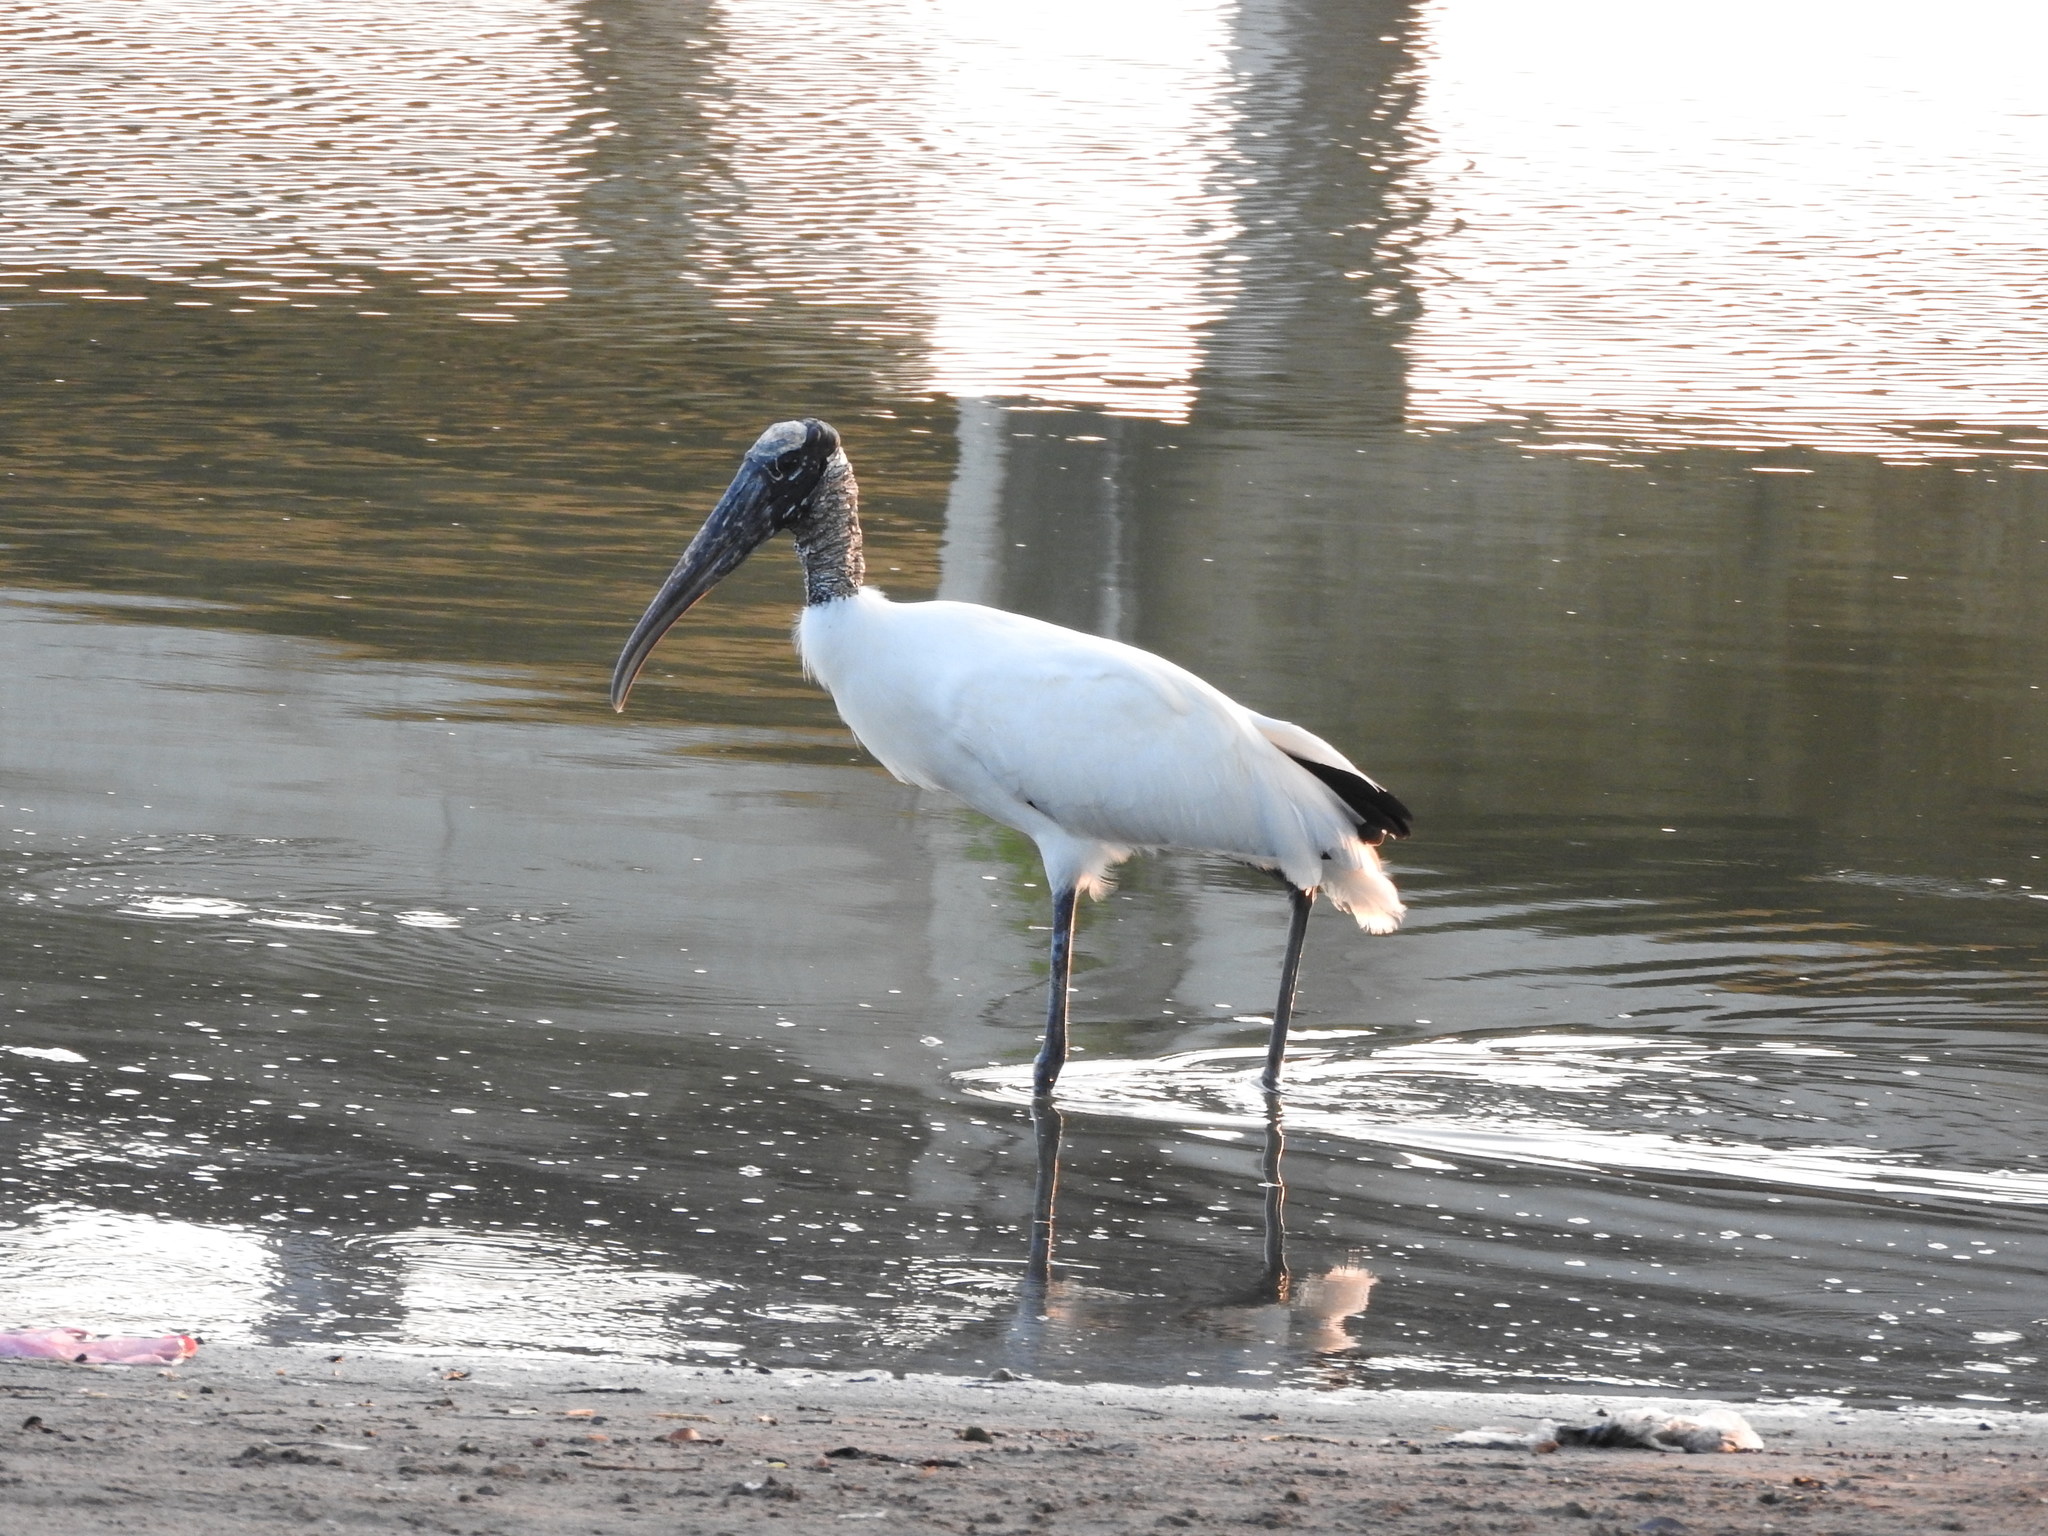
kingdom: Animalia
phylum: Chordata
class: Aves
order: Ciconiiformes
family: Ciconiidae
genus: Mycteria
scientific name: Mycteria americana
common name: Wood stork
